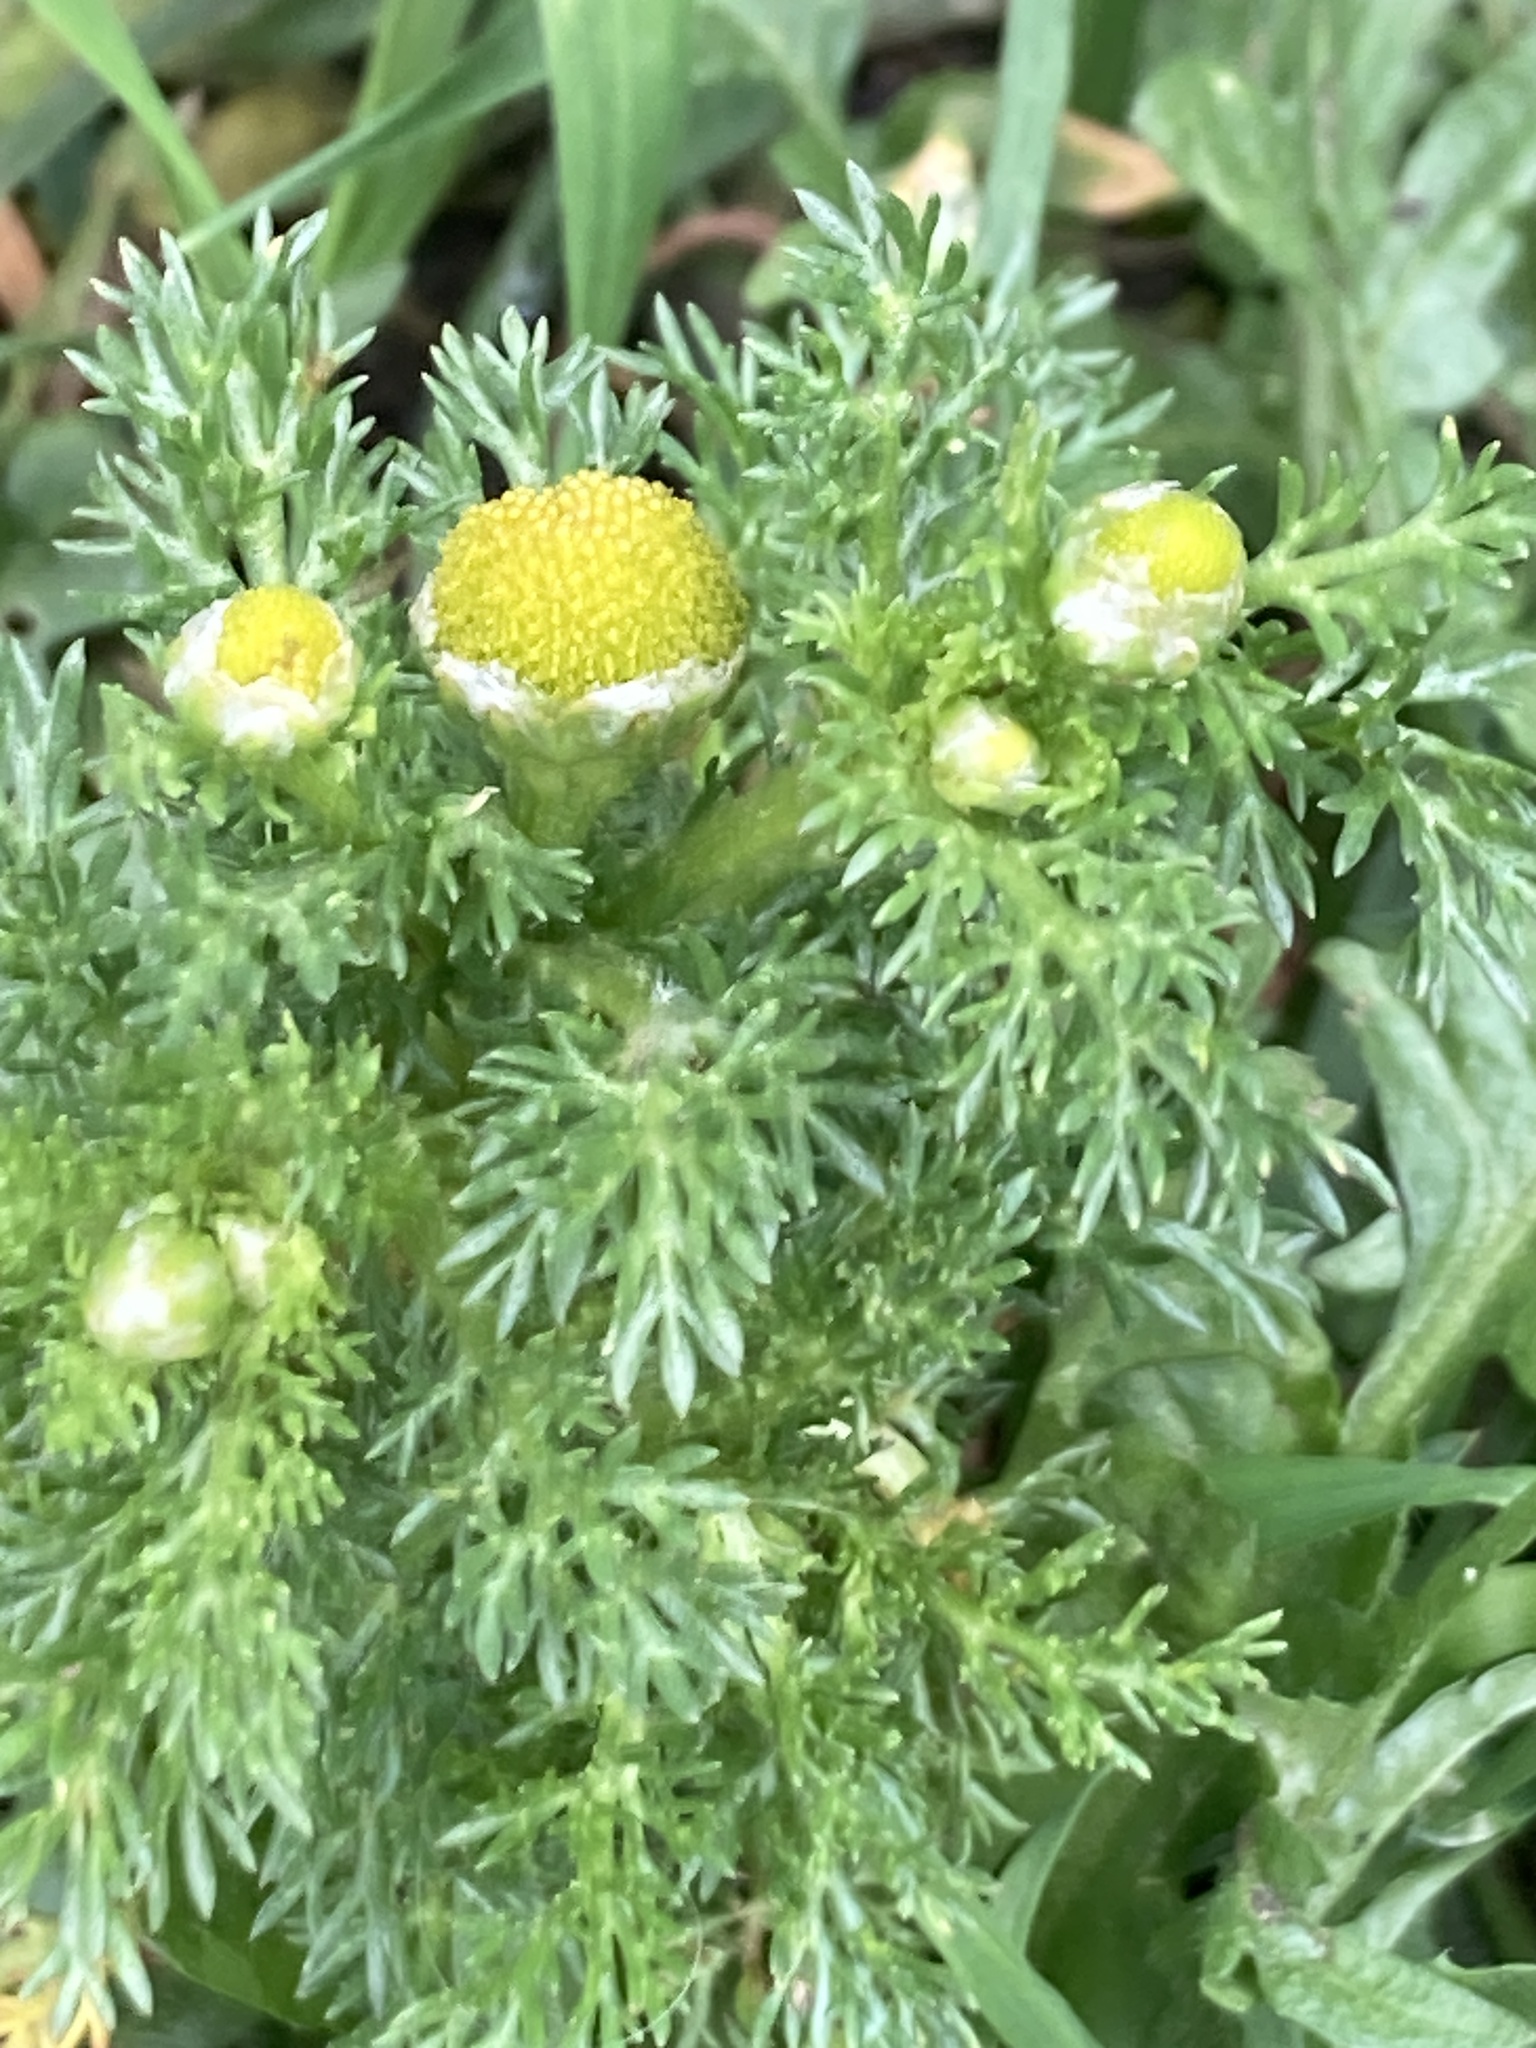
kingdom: Plantae
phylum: Tracheophyta
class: Magnoliopsida
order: Asterales
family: Asteraceae
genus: Matricaria
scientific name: Matricaria discoidea
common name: Disc mayweed
